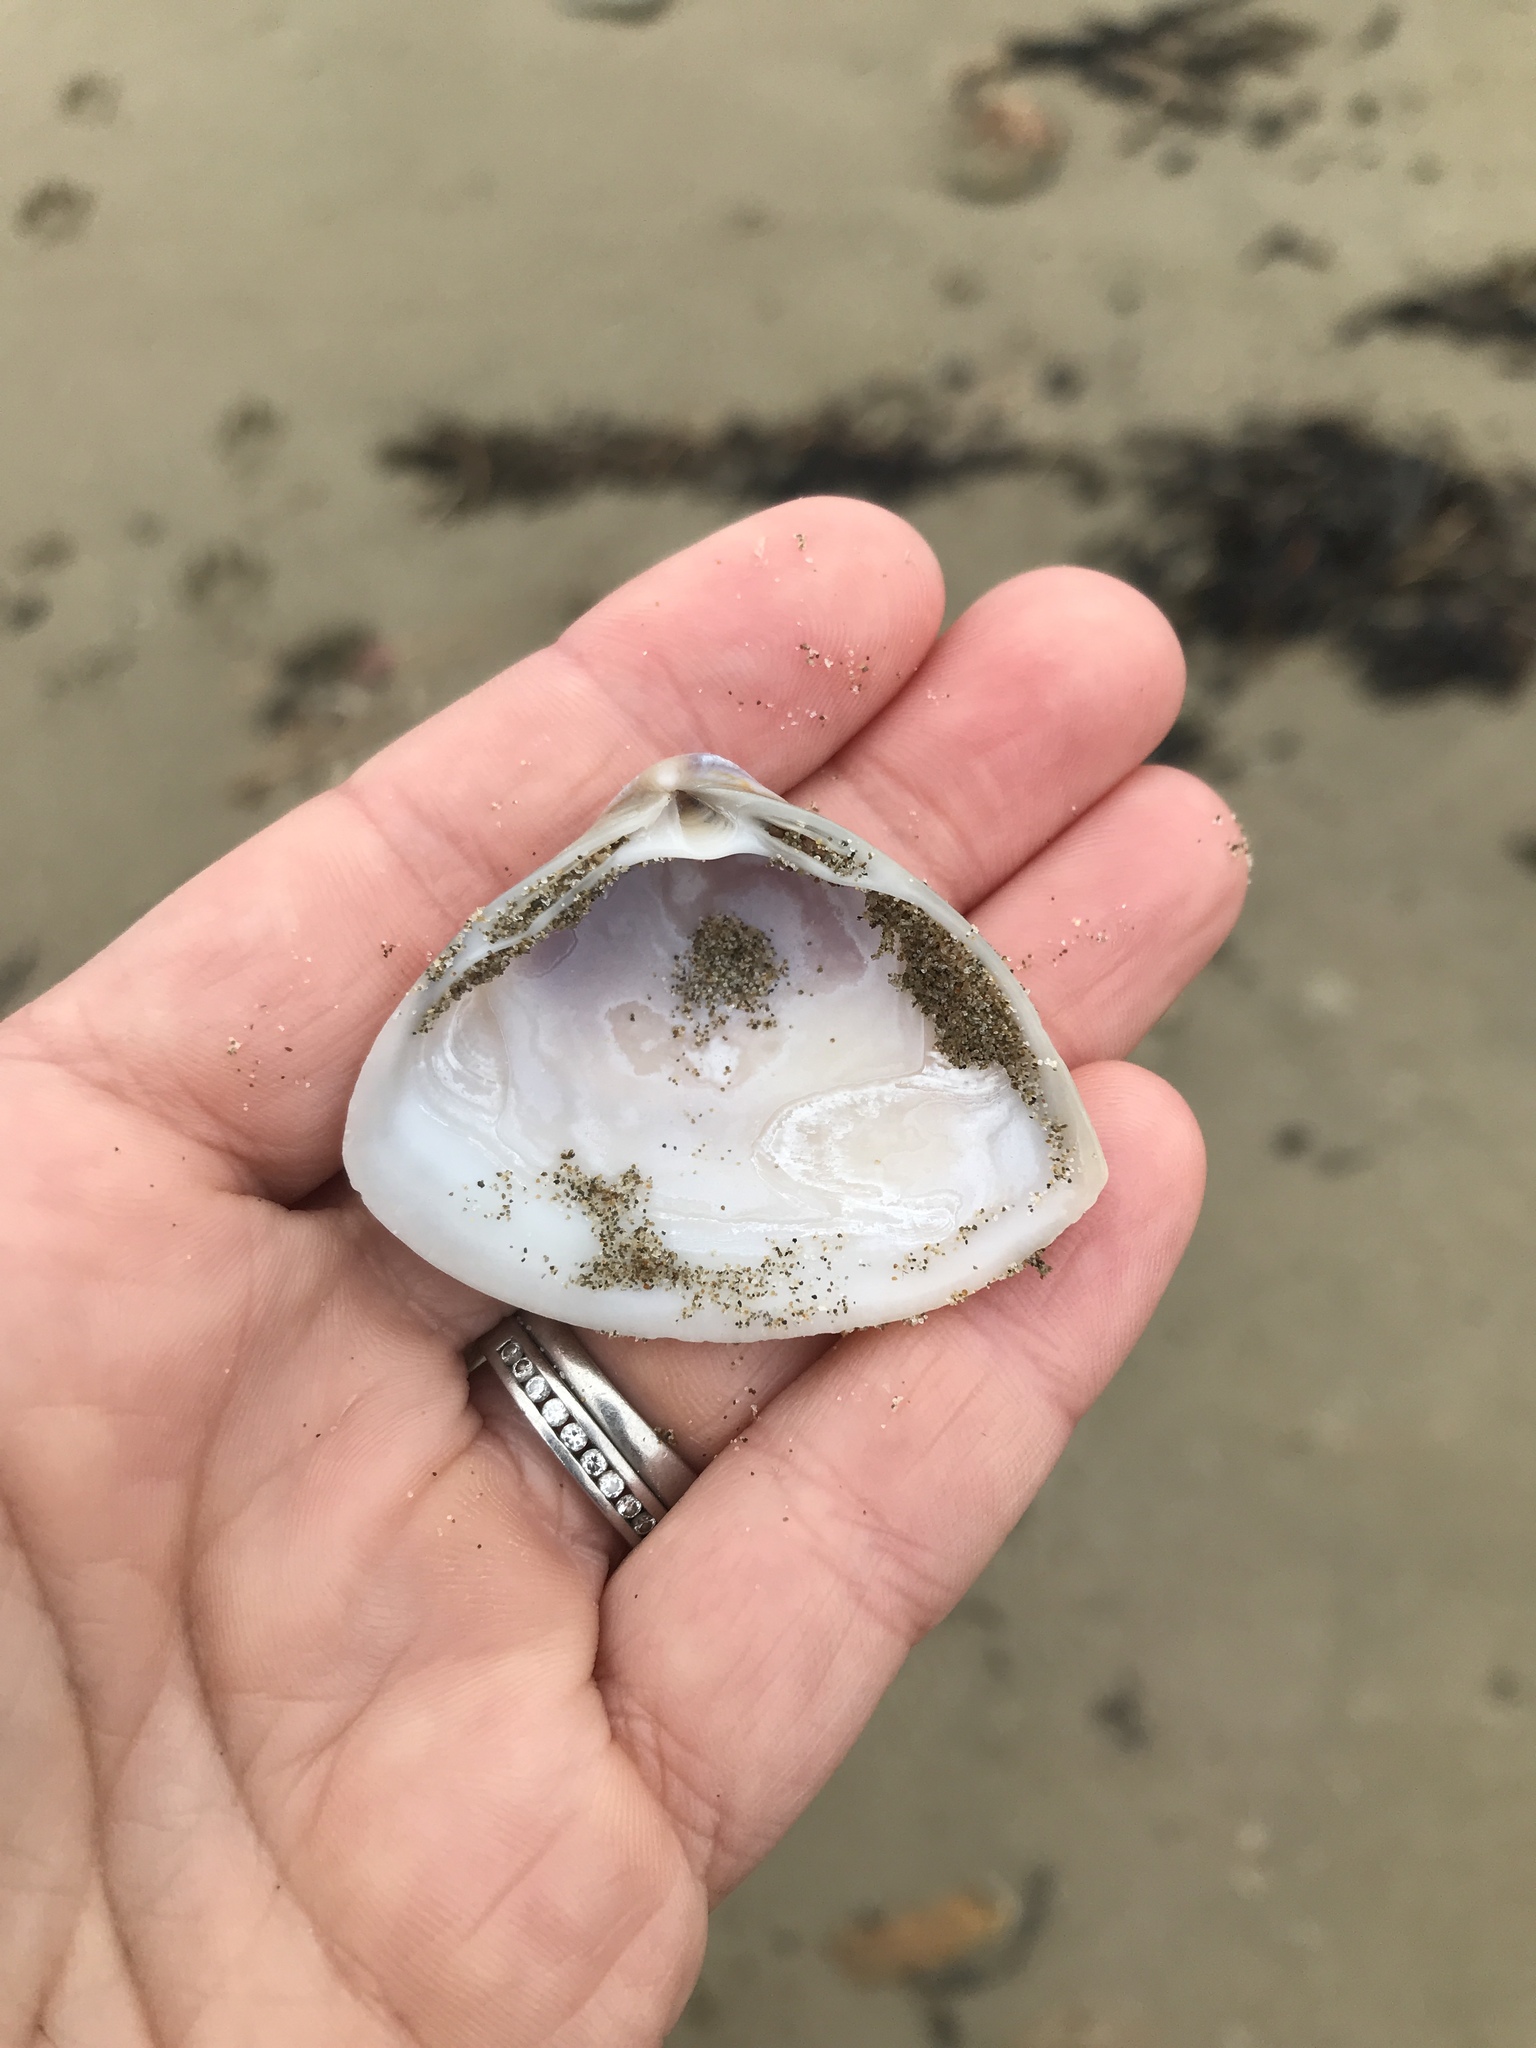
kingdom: Animalia
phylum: Mollusca
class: Bivalvia
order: Venerida
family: Mactridae
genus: Crassula
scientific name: Crassula aequilatera
